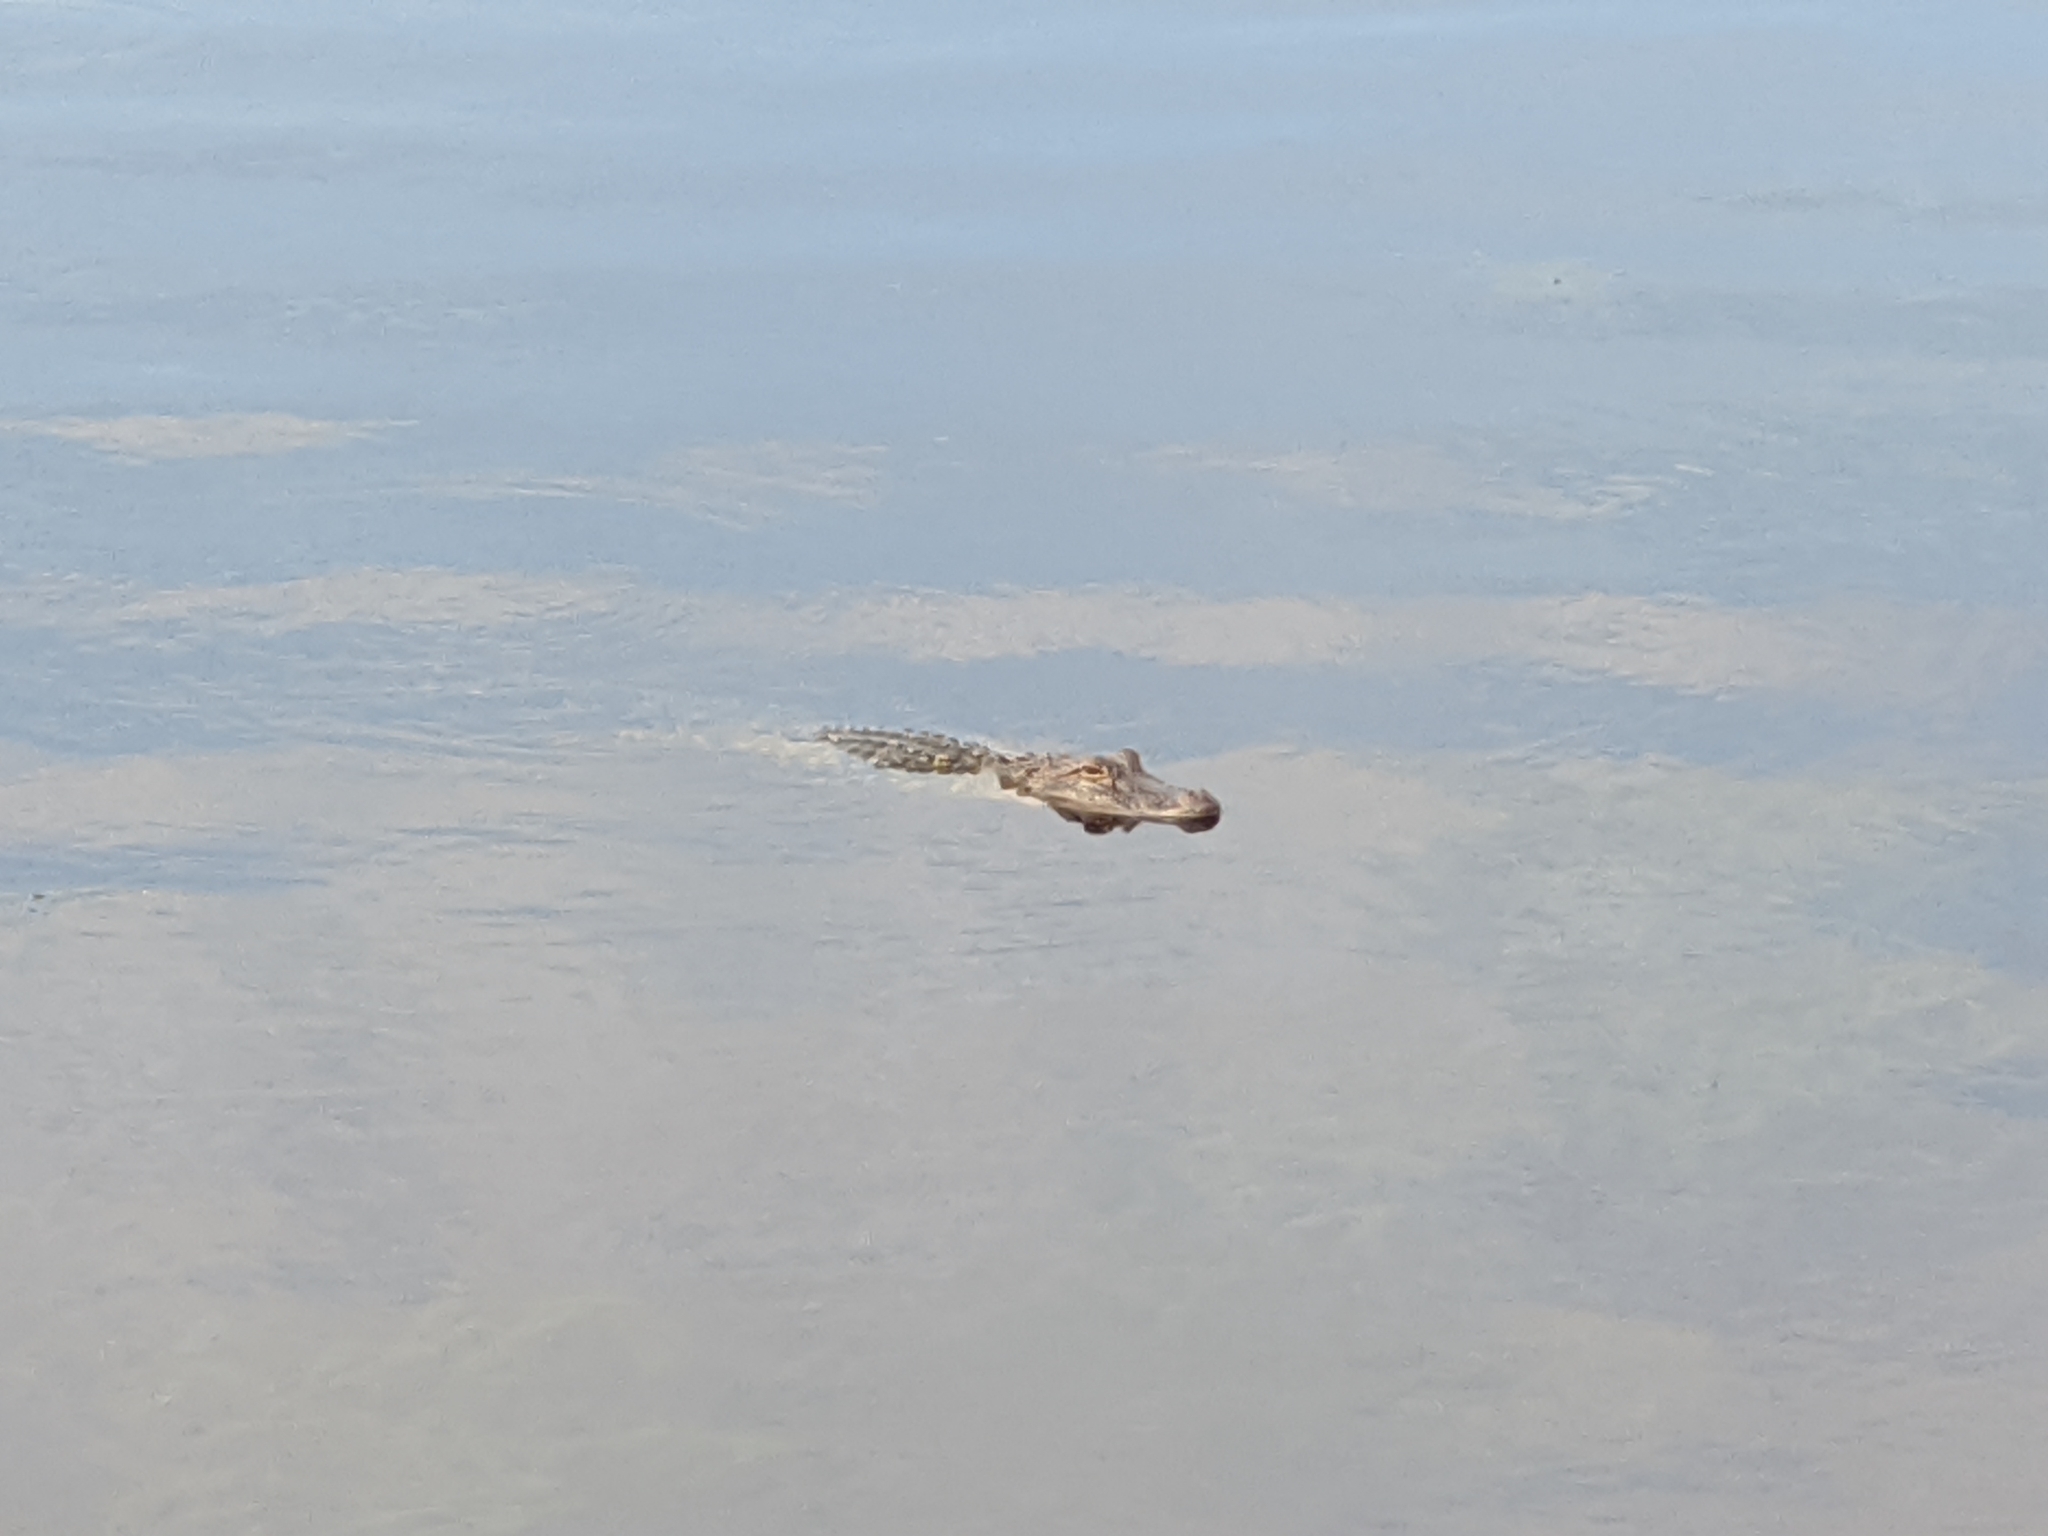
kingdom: Animalia
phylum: Chordata
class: Crocodylia
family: Alligatoridae
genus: Alligator
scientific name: Alligator mississippiensis
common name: American alligator
